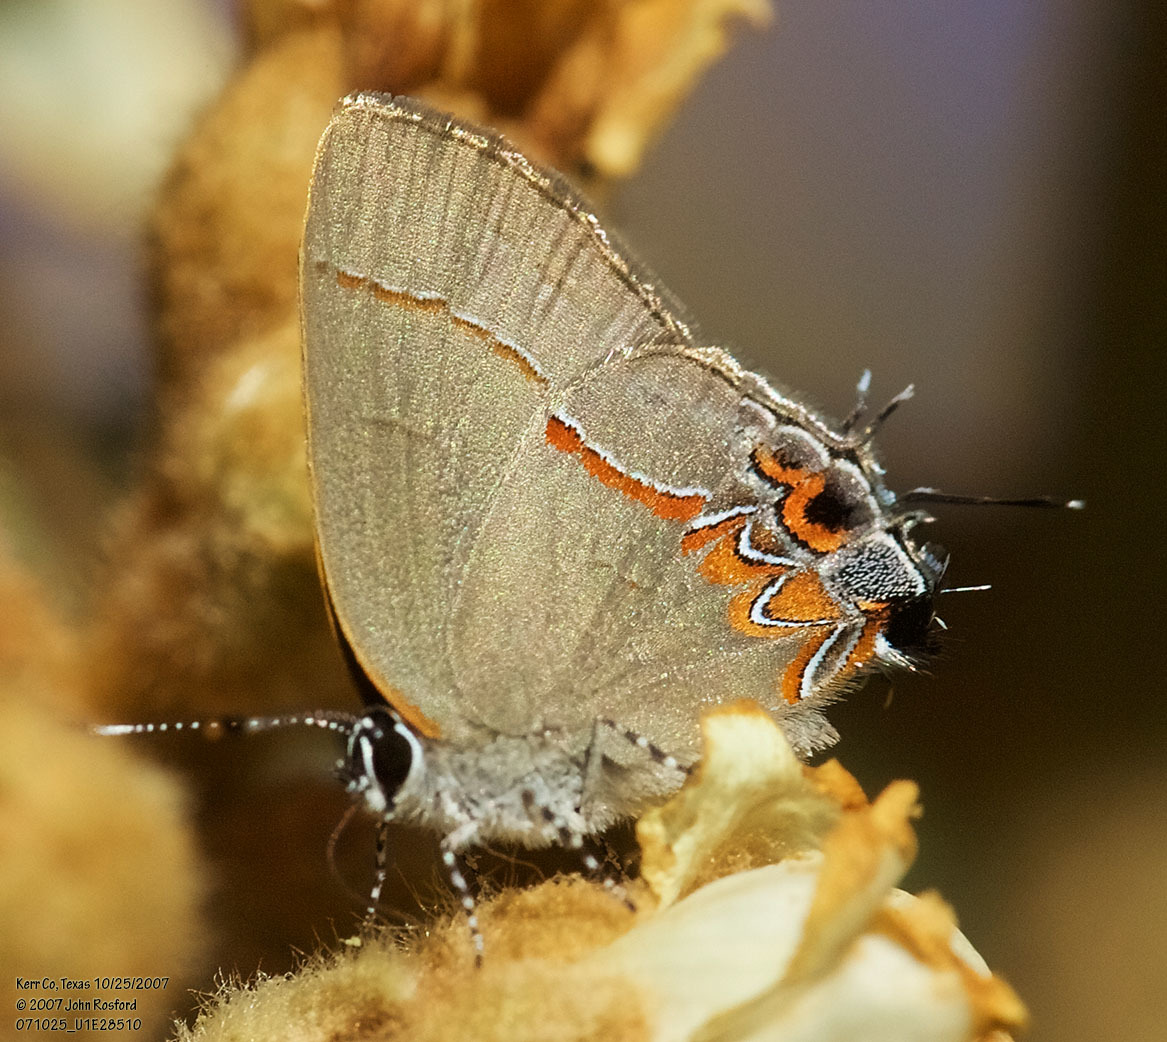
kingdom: Animalia
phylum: Arthropoda
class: Insecta
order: Lepidoptera
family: Lycaenidae
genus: Calycopis
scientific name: Calycopis isobeon
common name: Dusky-blue groundstreak
